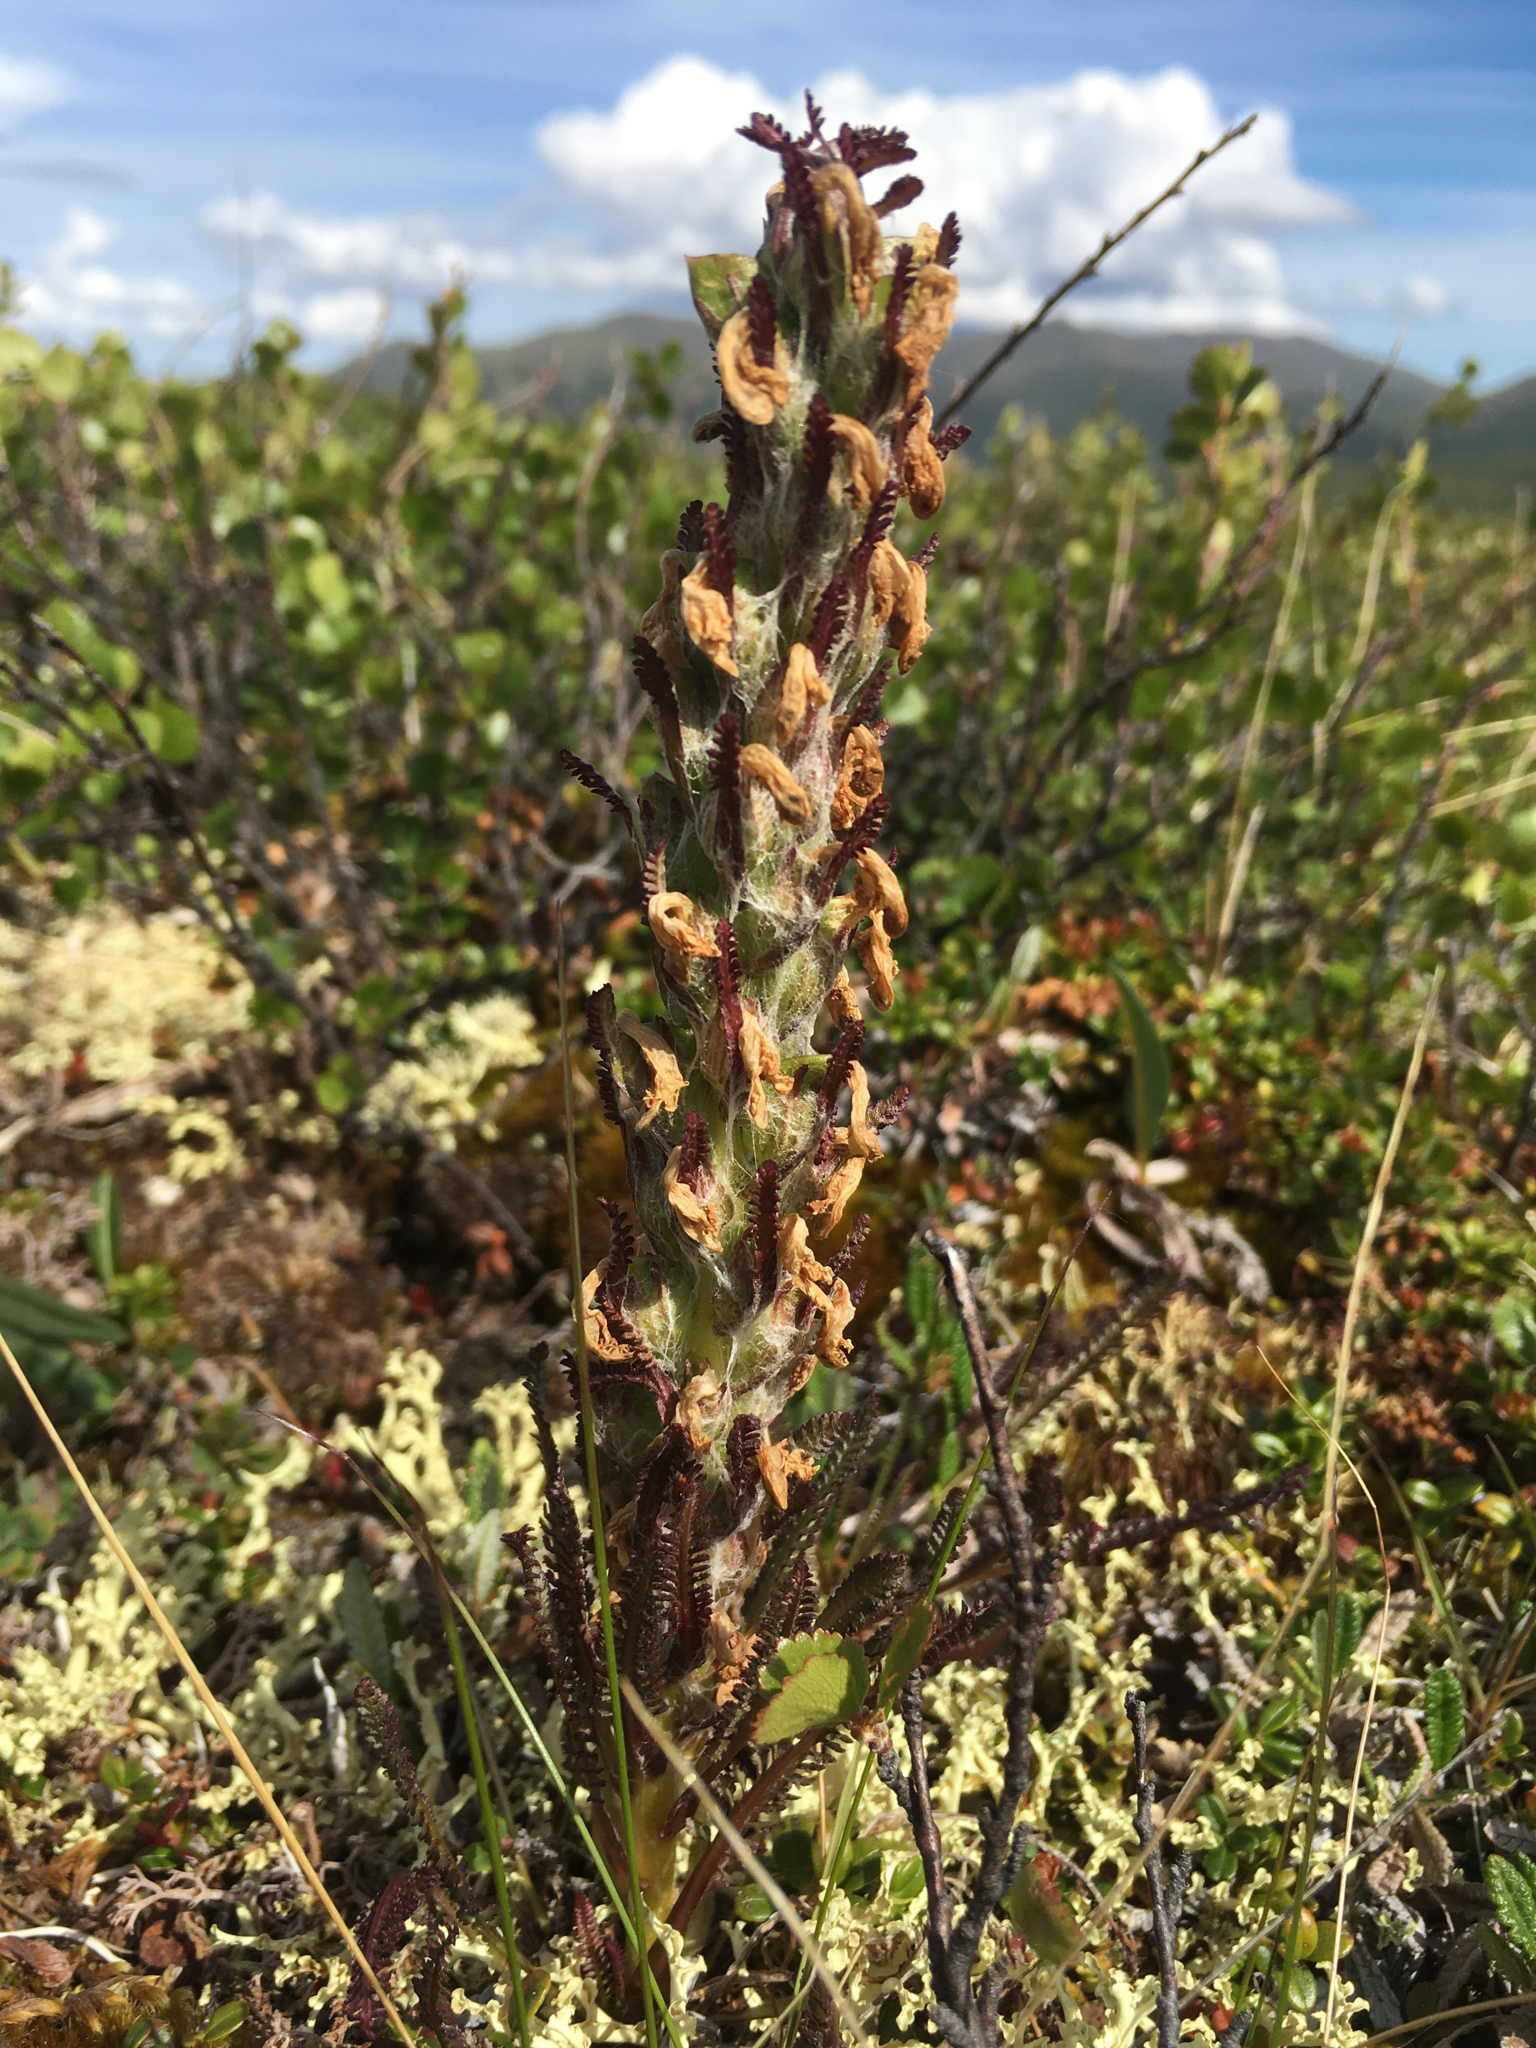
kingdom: Plantae
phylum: Tracheophyta
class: Magnoliopsida
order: Lamiales
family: Orobanchaceae
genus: Pedicularis
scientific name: Pedicularis langsdorffii
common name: Langsdorff's lousewort
